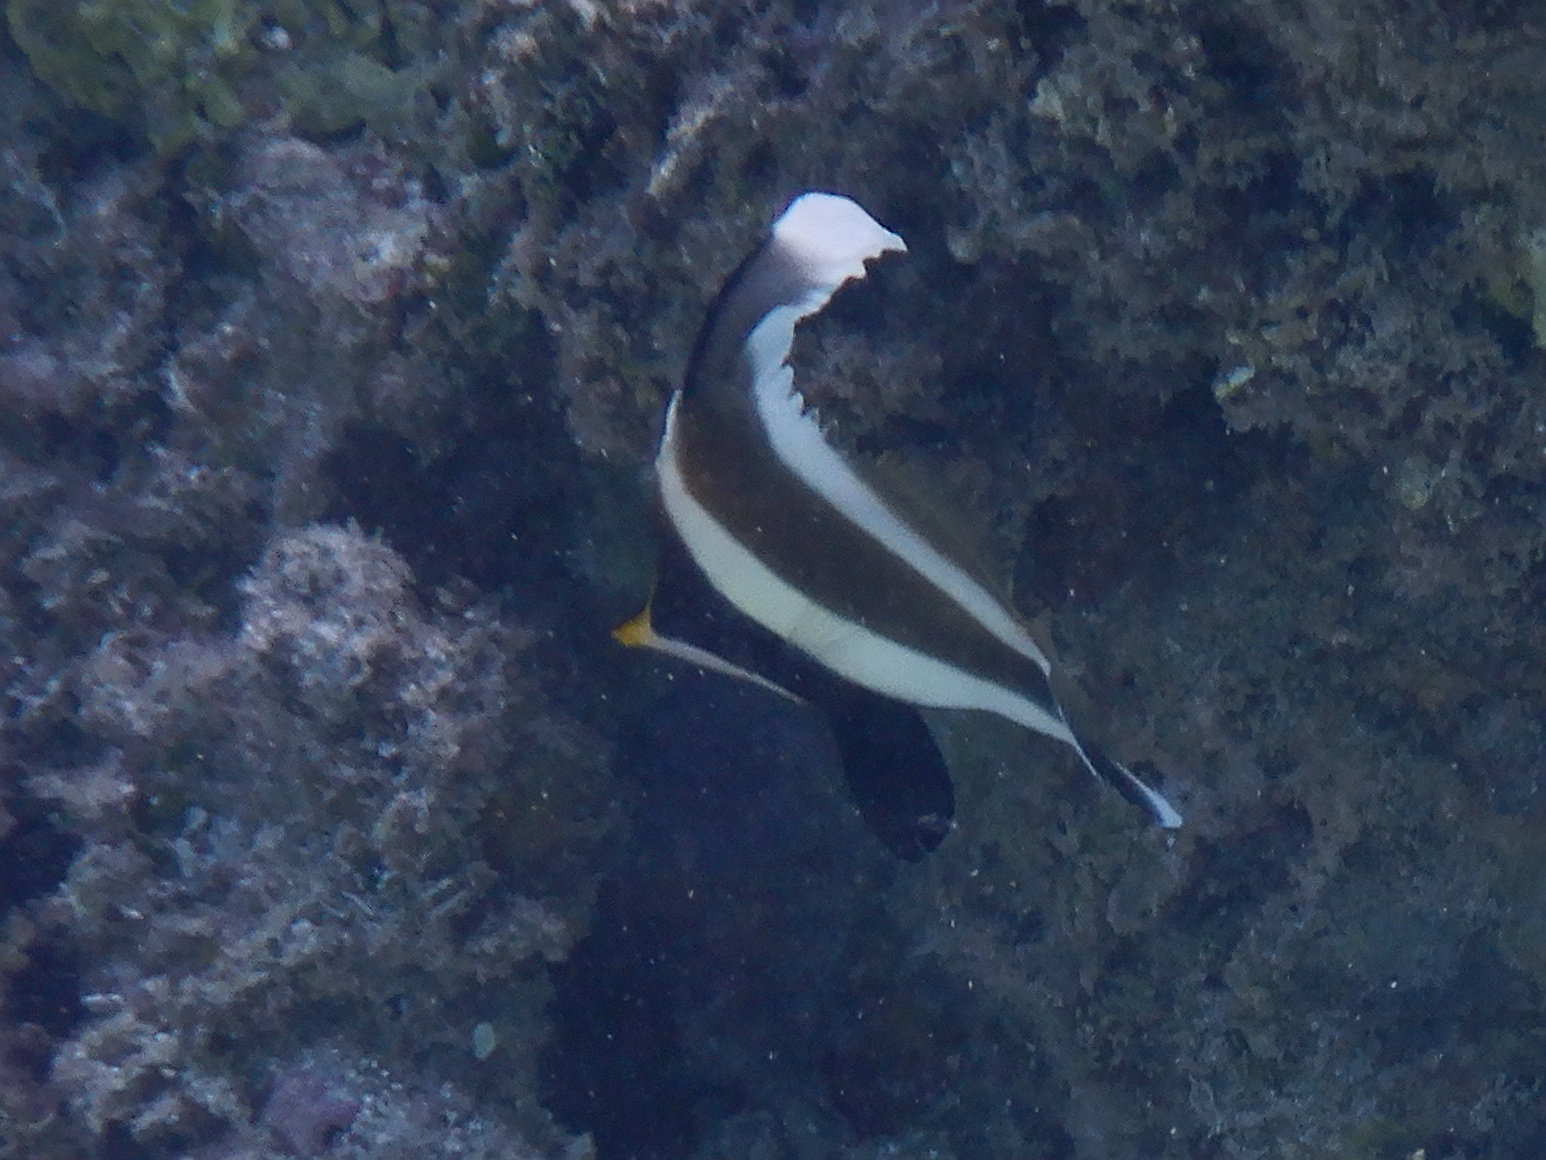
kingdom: Animalia
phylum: Chordata
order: Perciformes
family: Chaetodontidae
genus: Heniochus
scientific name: Heniochus chrysostomus
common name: Horned bannerfish
